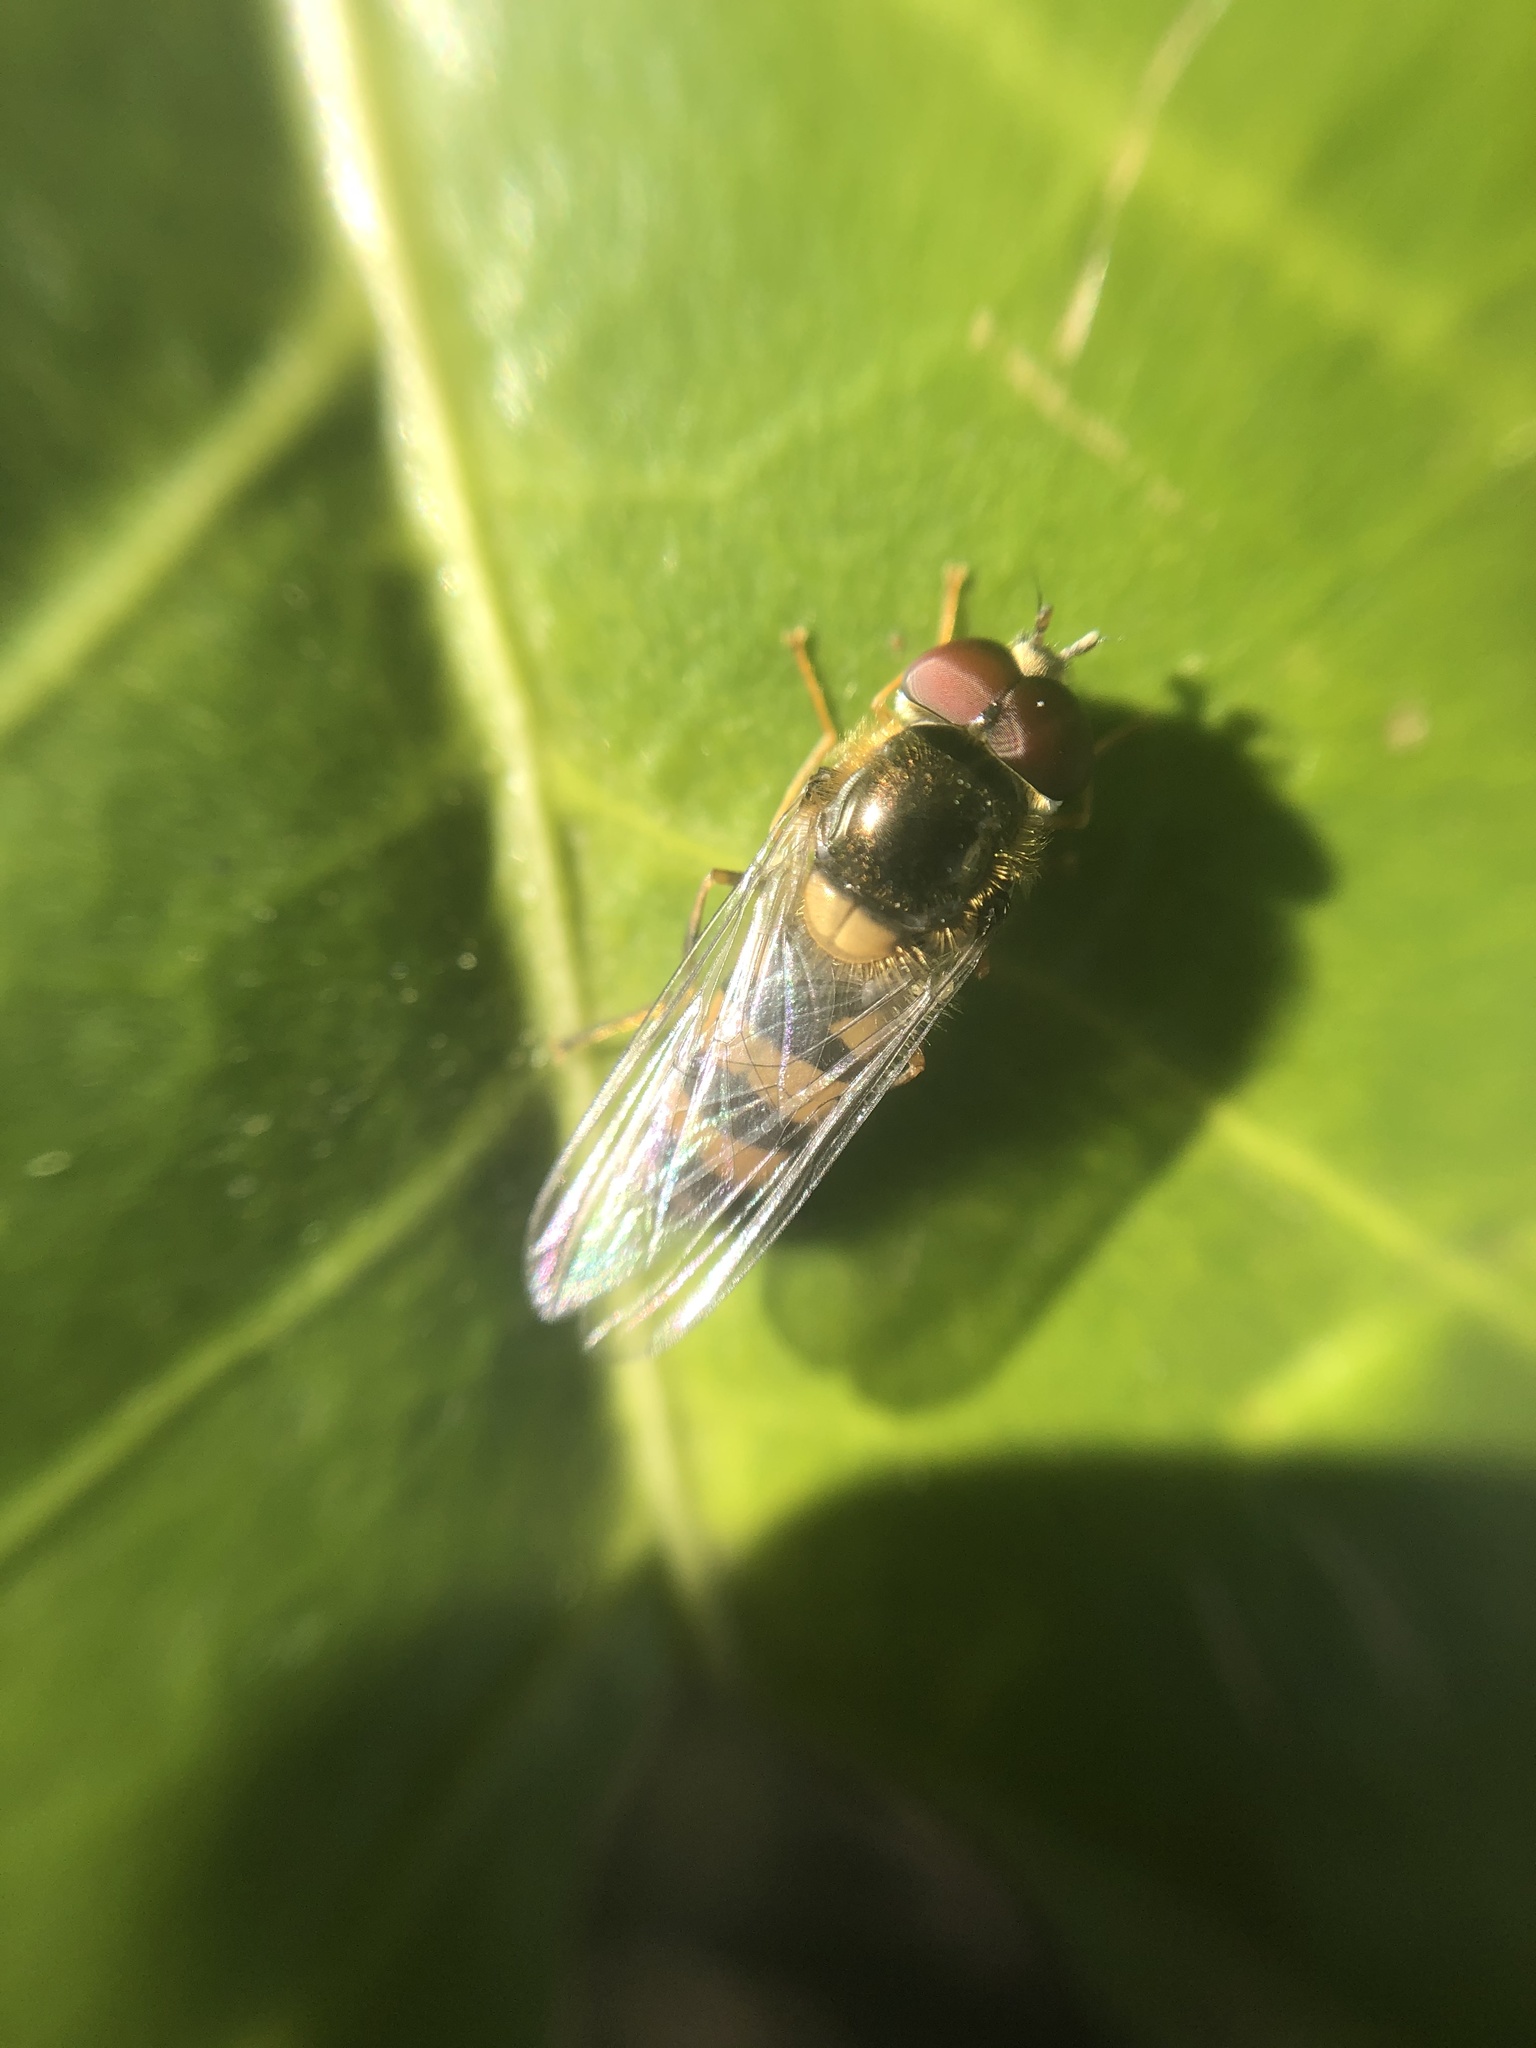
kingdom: Animalia
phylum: Arthropoda
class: Insecta
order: Diptera
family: Syrphidae
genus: Fagisyrphus
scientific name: Fagisyrphus cincta
